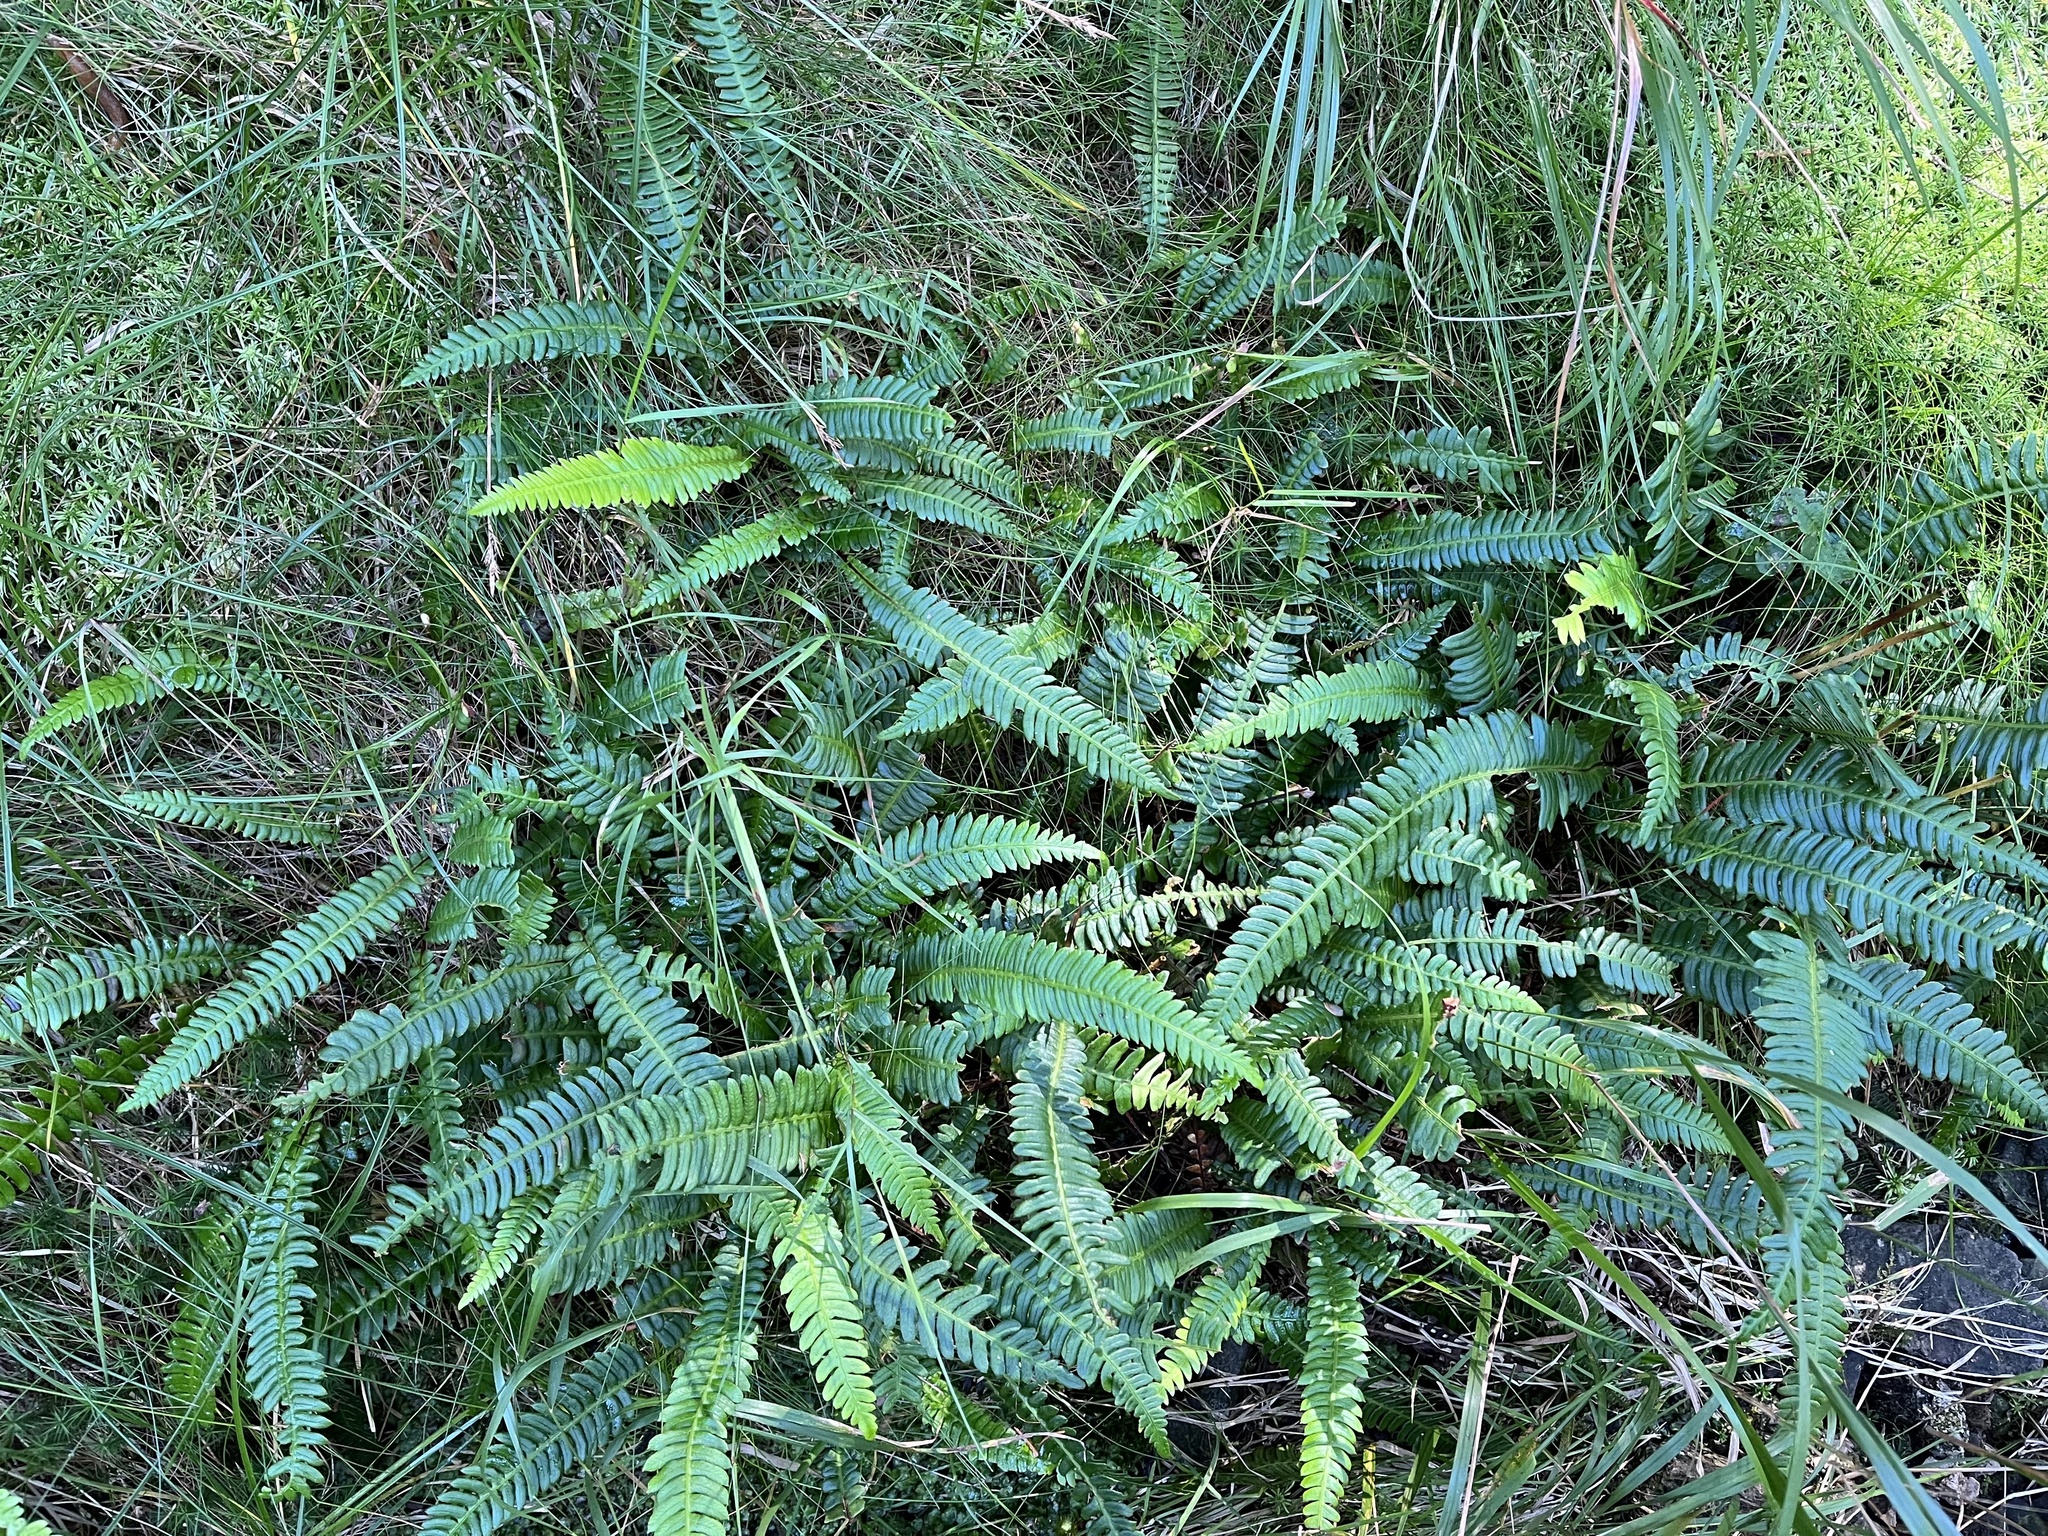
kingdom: Plantae
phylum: Tracheophyta
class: Polypodiopsida
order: Polypodiales
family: Blechnaceae
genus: Struthiopteris
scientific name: Struthiopteris spicant
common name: Deer fern
